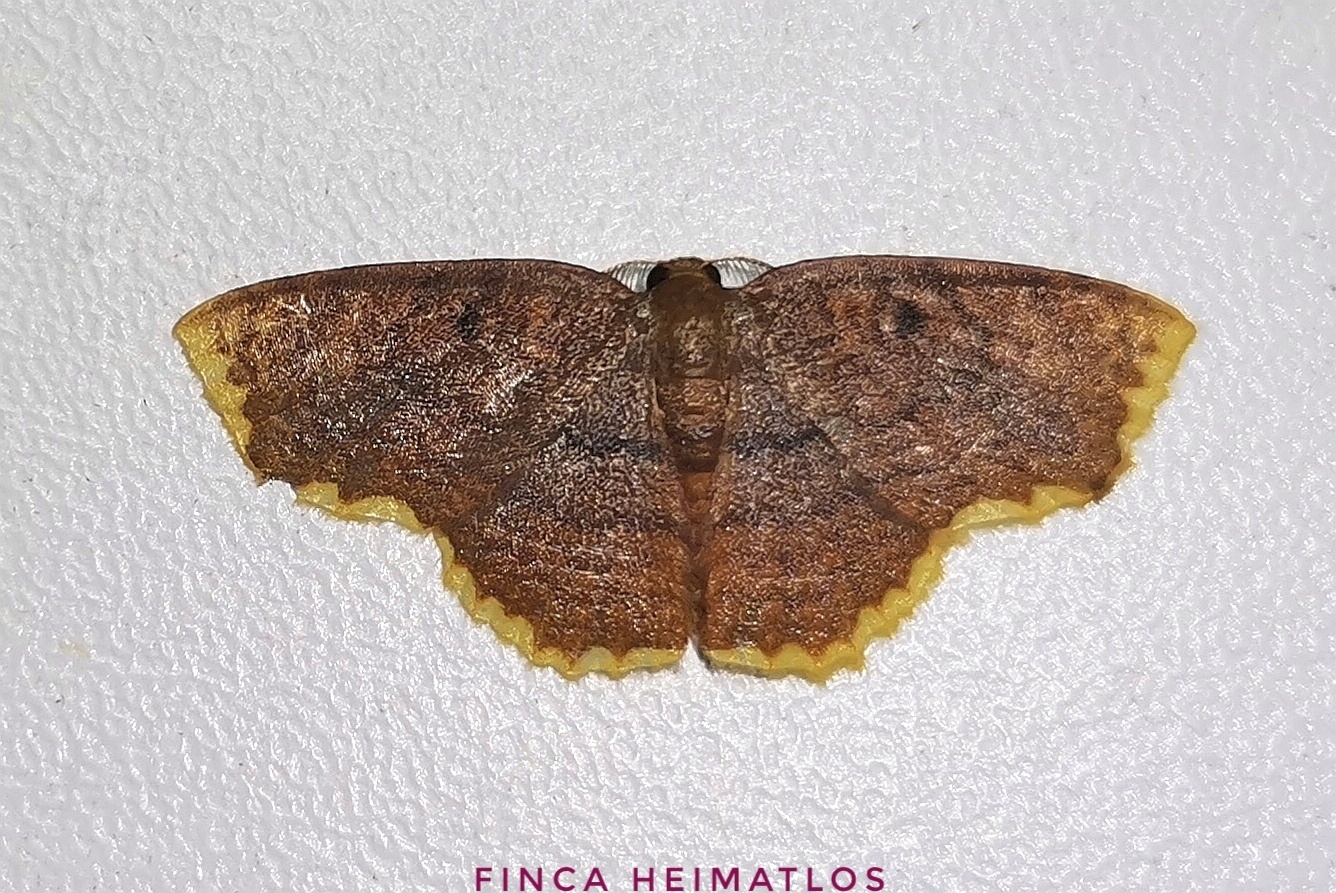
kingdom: Animalia
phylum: Arthropoda
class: Insecta
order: Lepidoptera
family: Geometridae
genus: Eois
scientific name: Eois serrilineata
